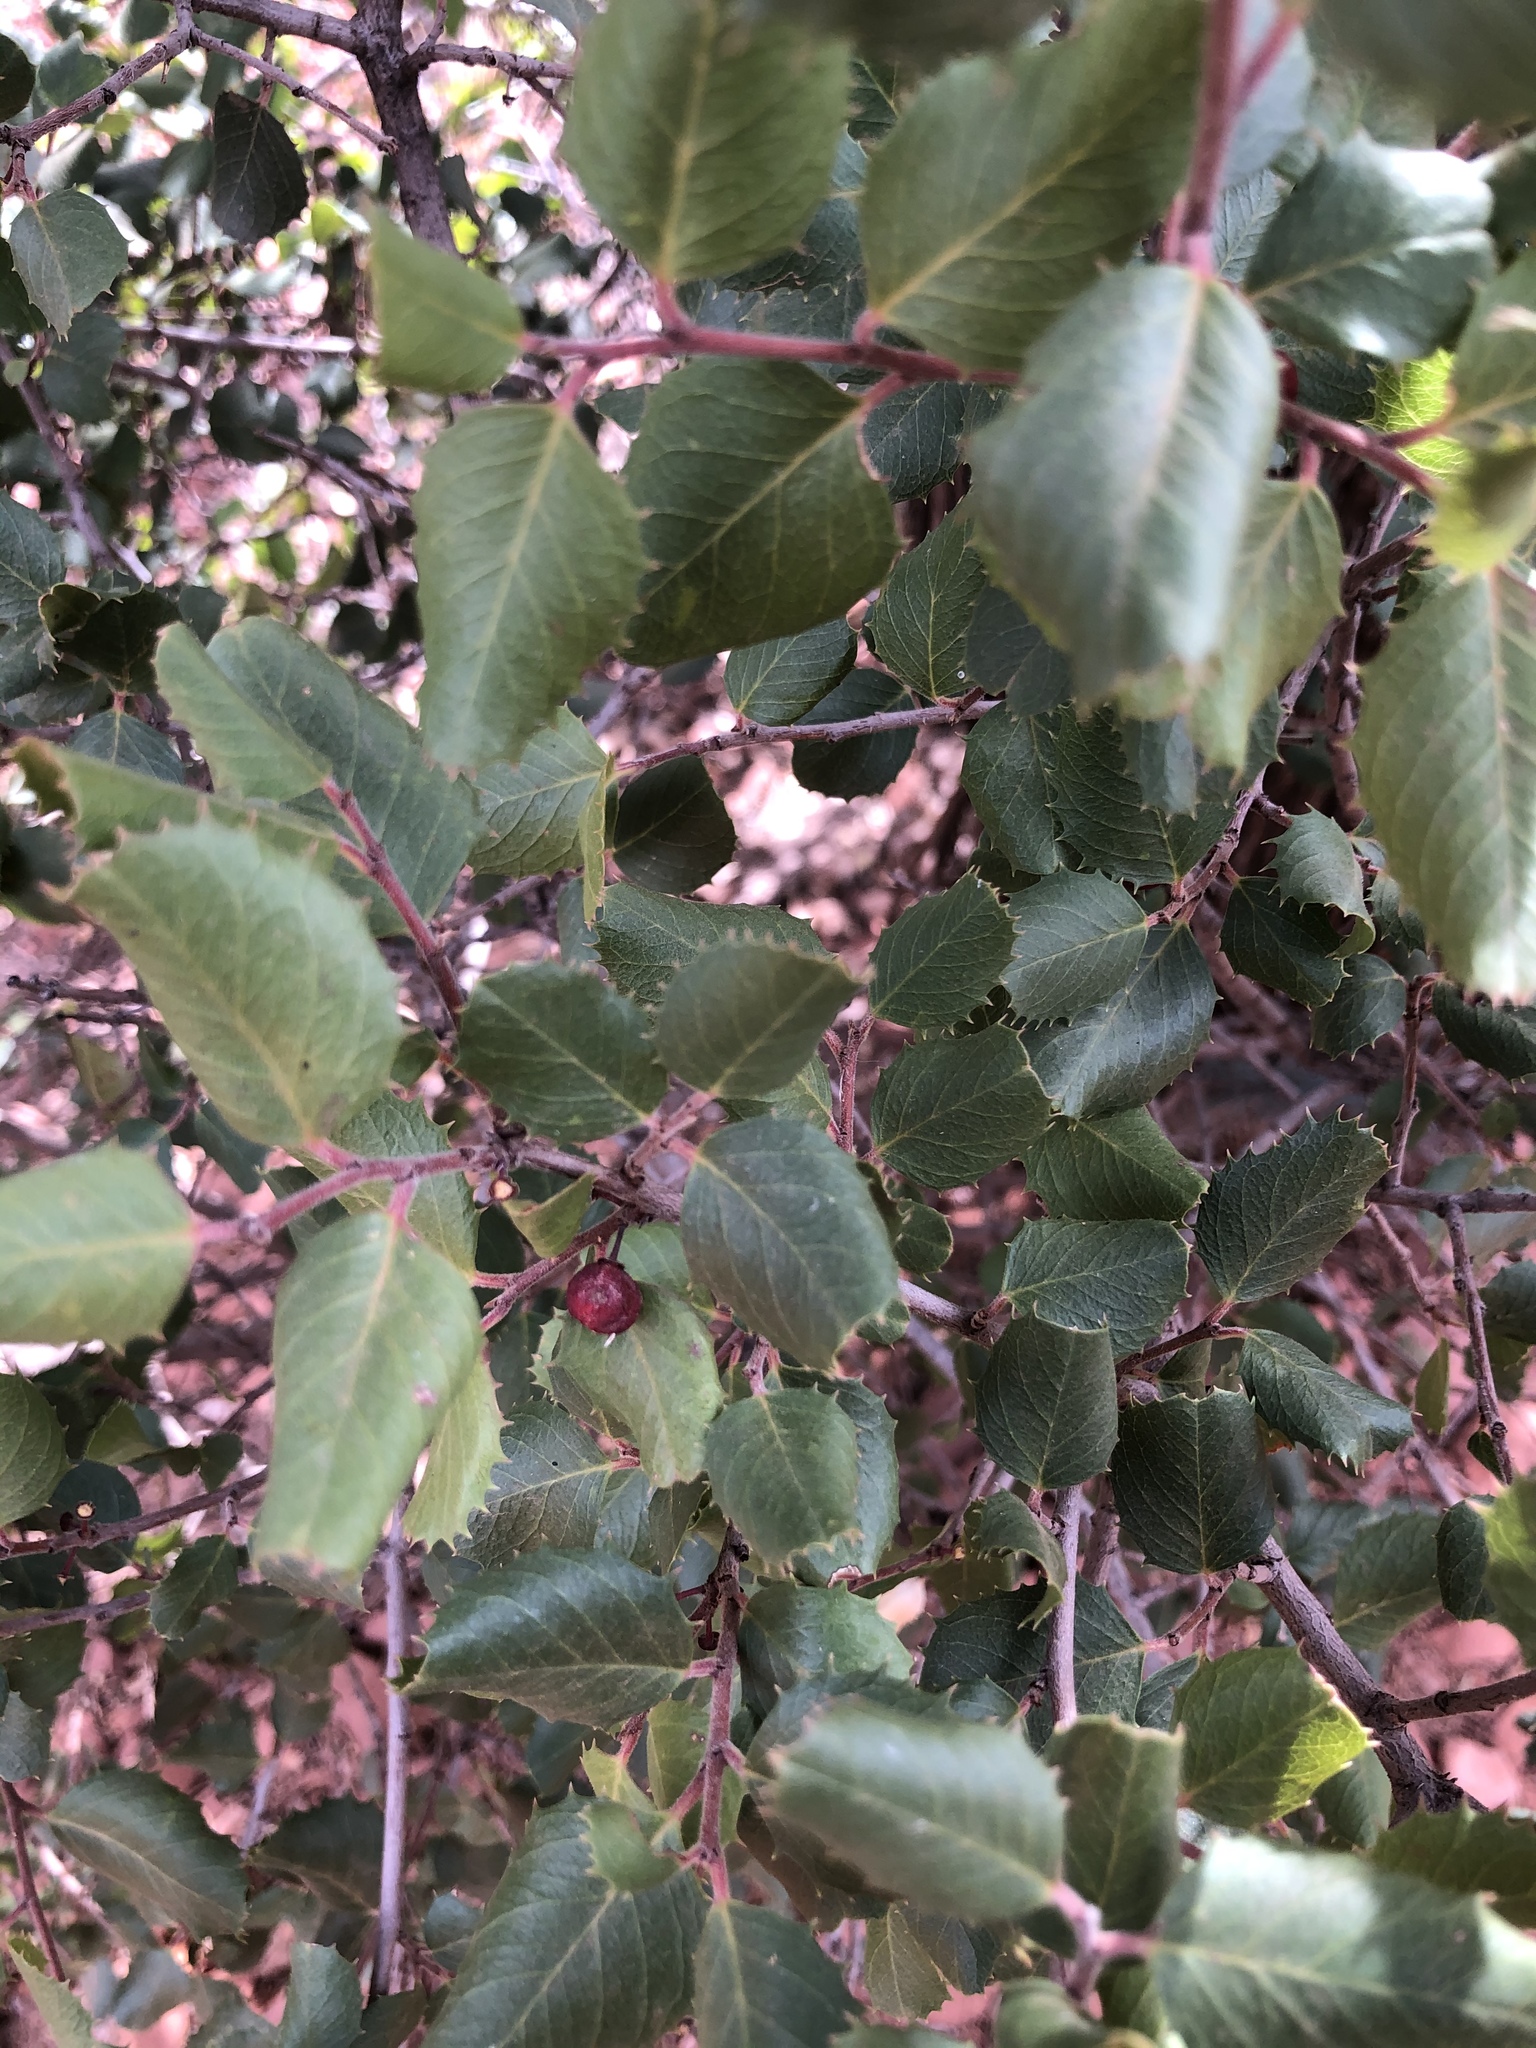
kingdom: Plantae
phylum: Tracheophyta
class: Magnoliopsida
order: Rosales
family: Rhamnaceae
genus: Endotropis
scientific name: Endotropis crocea
